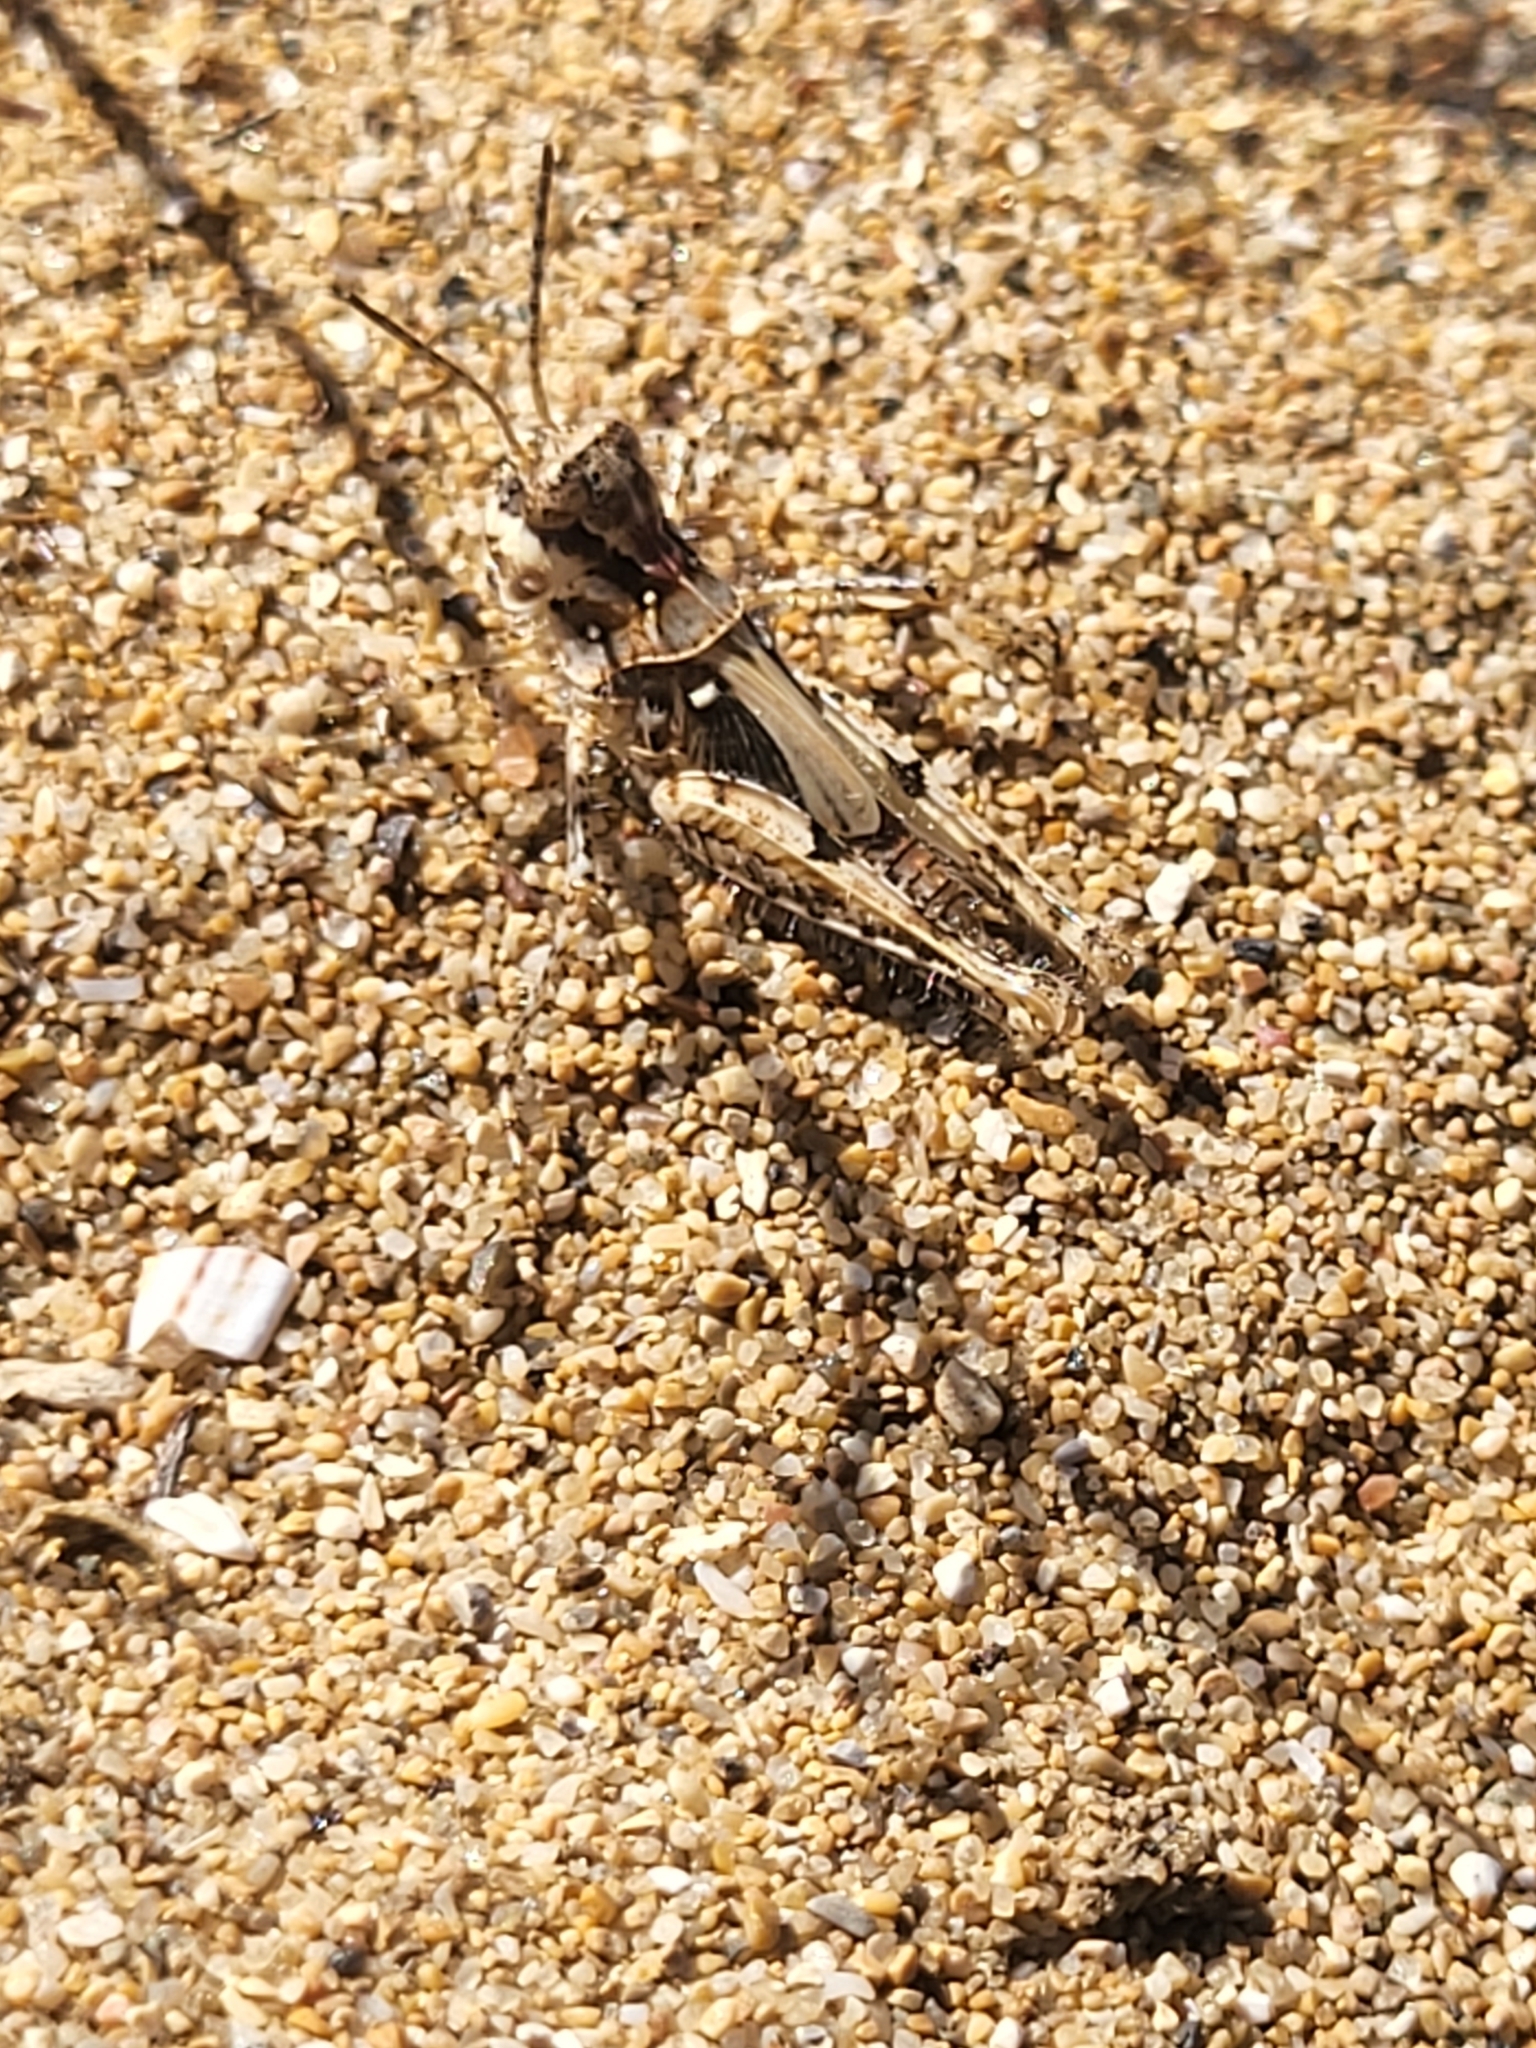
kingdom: Animalia
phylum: Arthropoda
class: Insecta
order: Orthoptera
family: Acrididae
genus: Acrotylus
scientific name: Acrotylus
